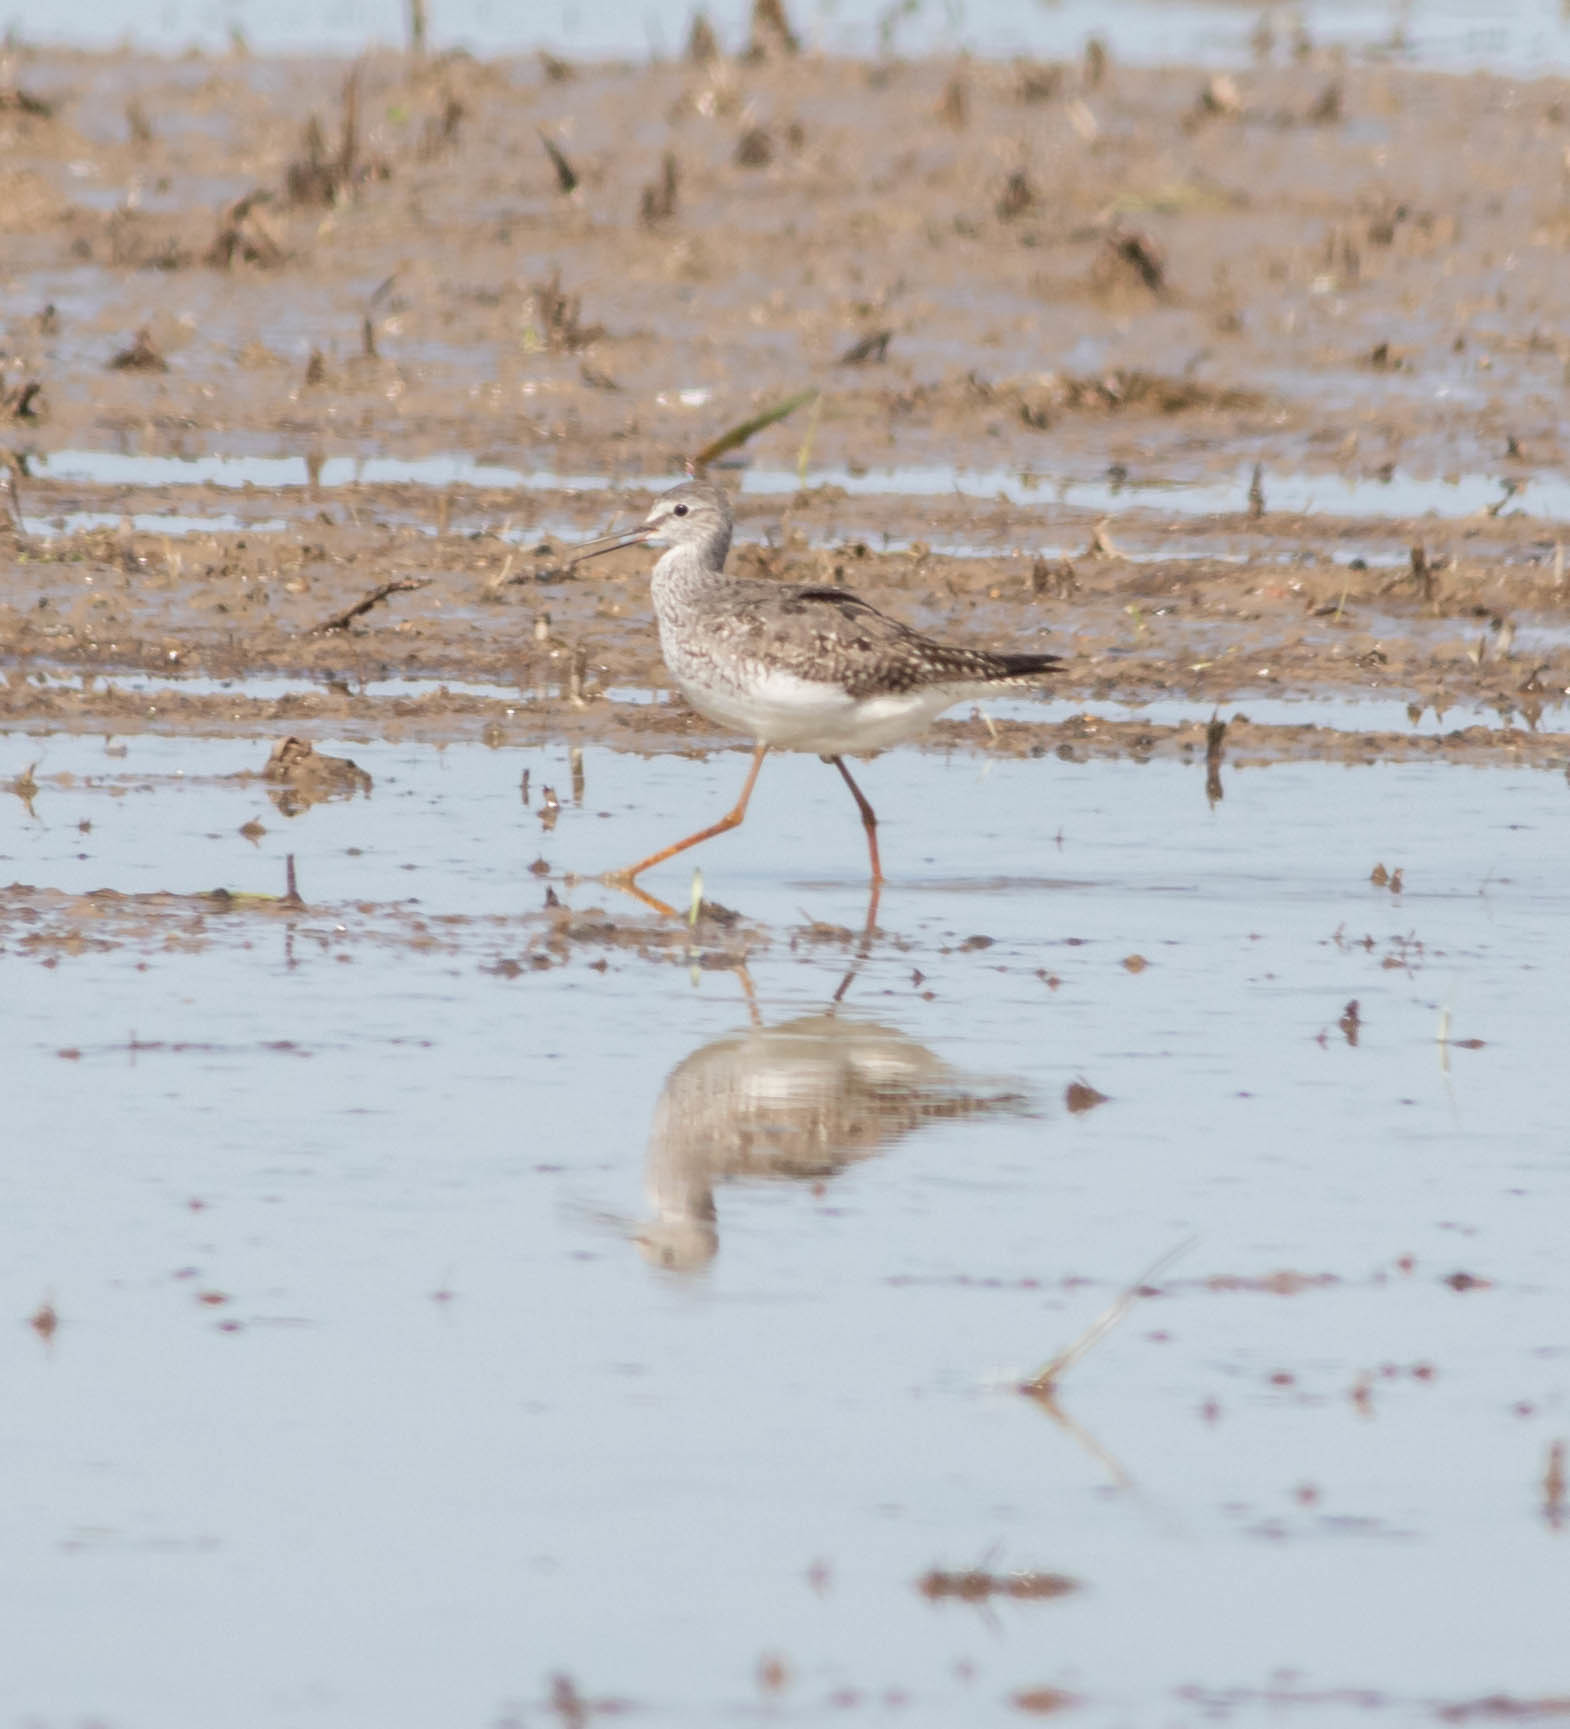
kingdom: Animalia
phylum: Chordata
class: Aves
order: Charadriiformes
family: Scolopacidae
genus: Tringa
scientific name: Tringa flavipes
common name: Lesser yellowlegs
